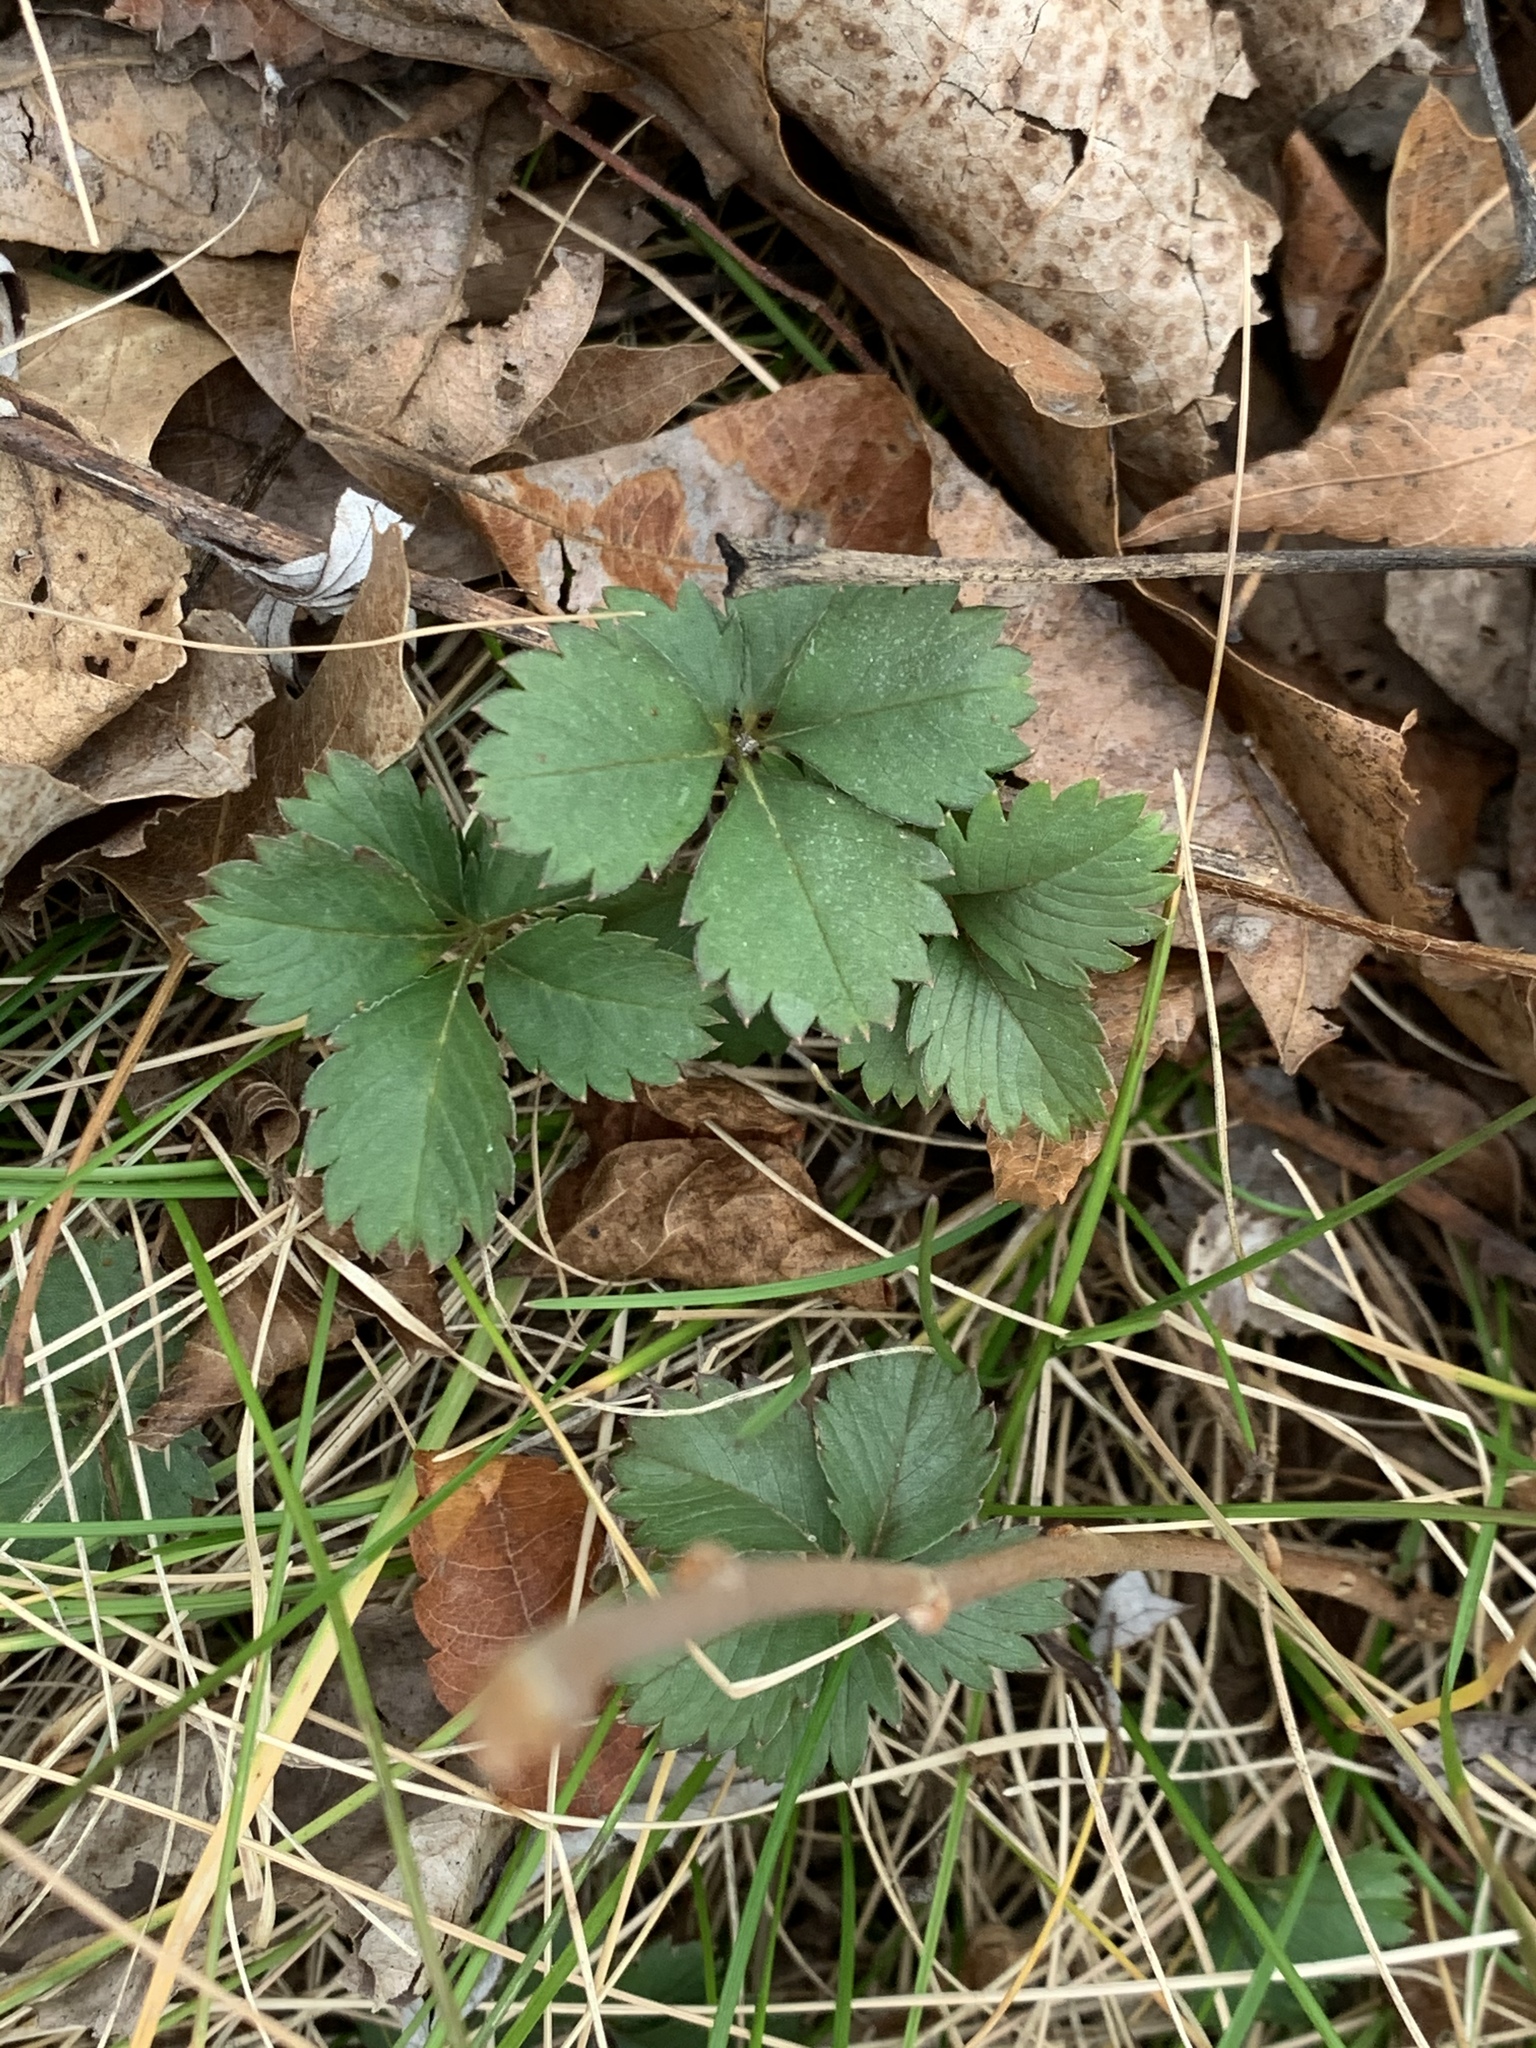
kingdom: Plantae
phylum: Tracheophyta
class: Magnoliopsida
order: Rosales
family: Rosaceae
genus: Potentilla
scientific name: Potentilla canadensis
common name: Canada cinquefoil
